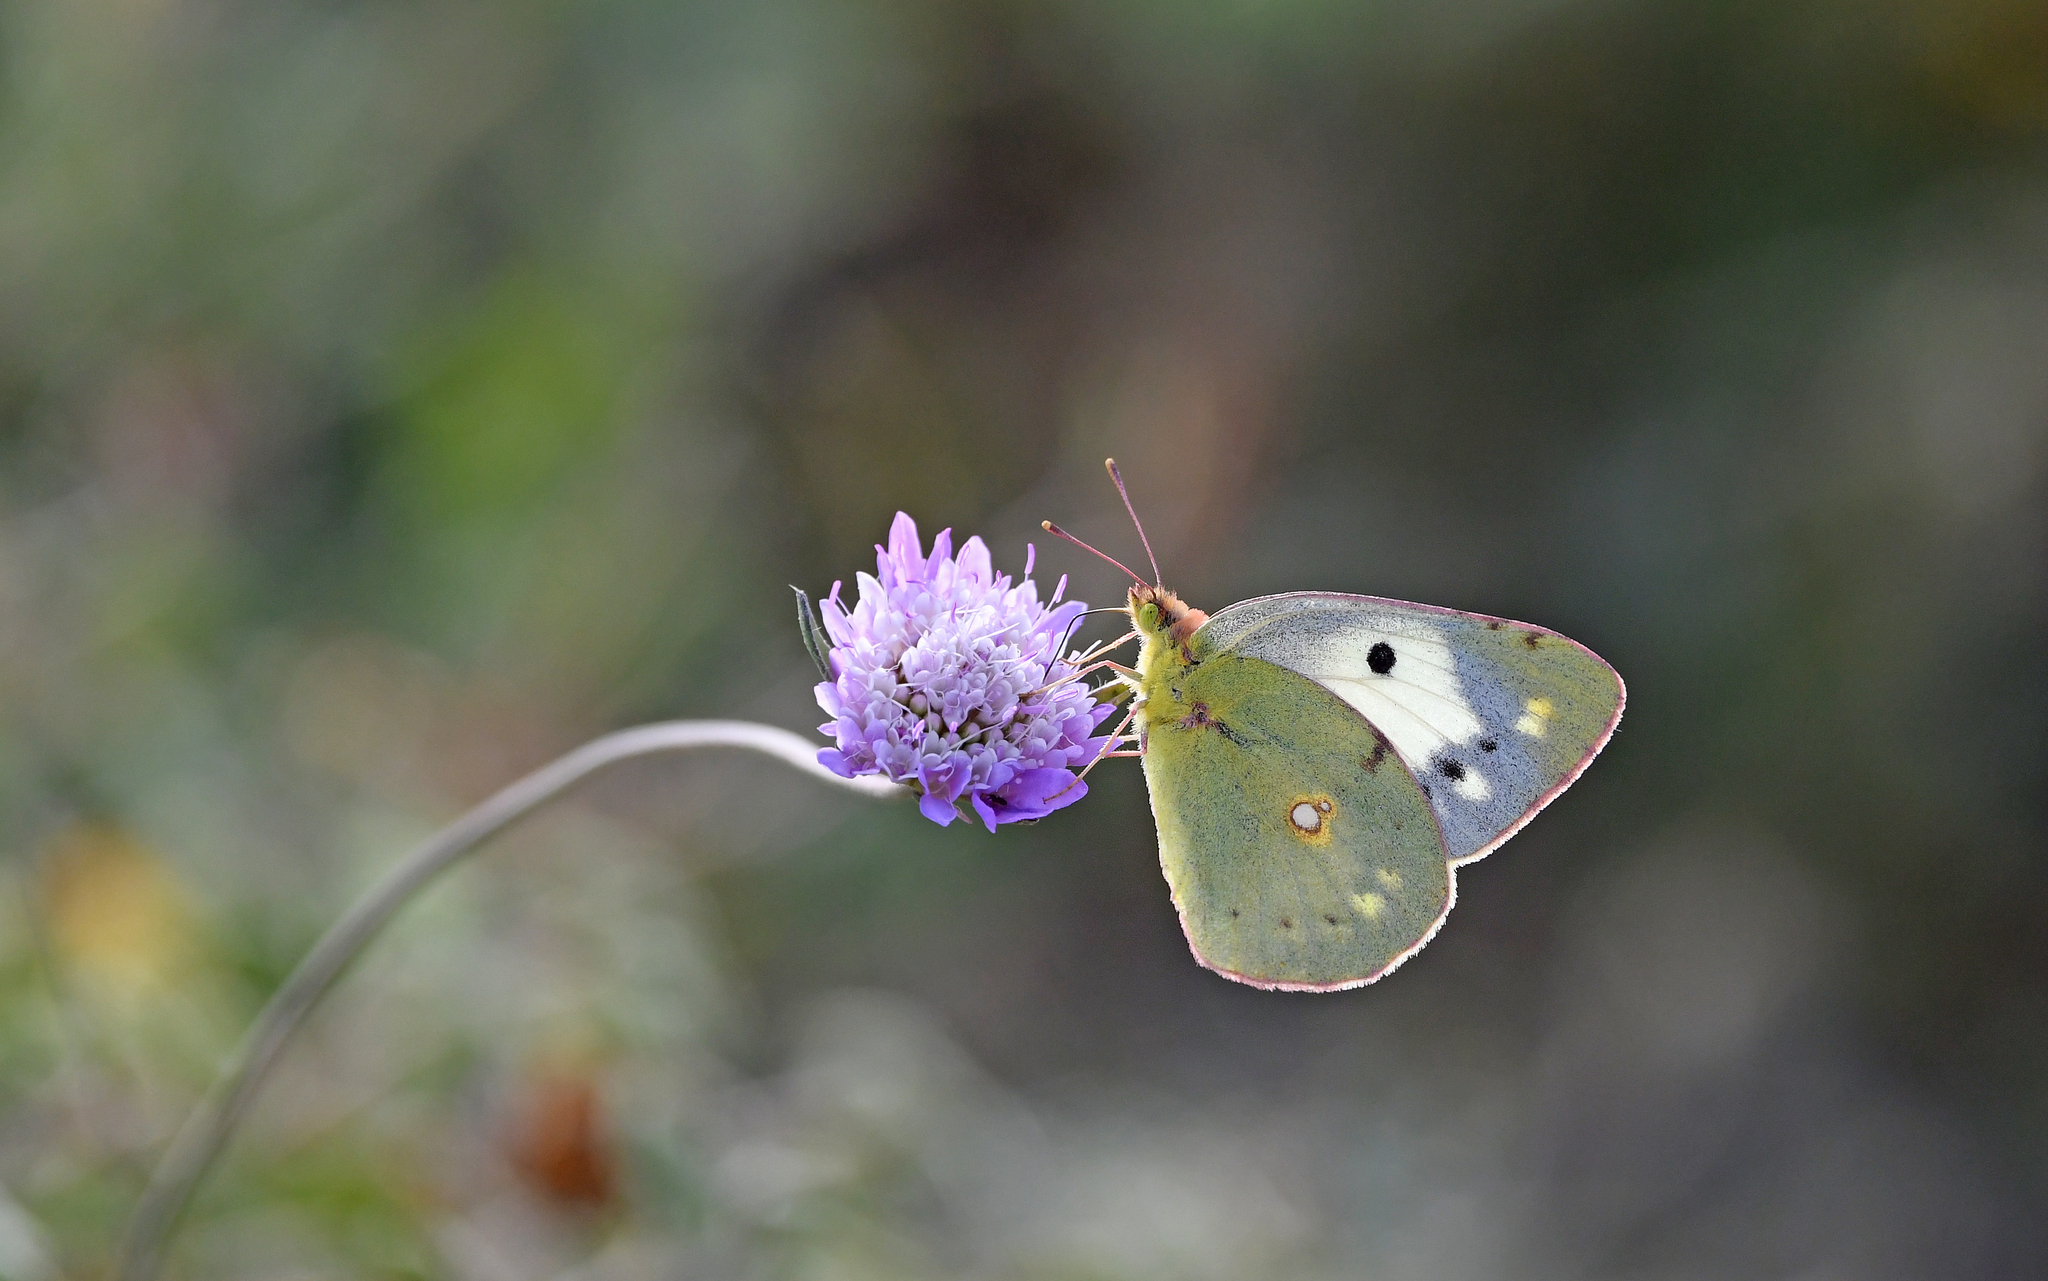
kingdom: Animalia
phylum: Arthropoda
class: Insecta
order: Lepidoptera
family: Pieridae
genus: Colias
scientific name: Colias croceus
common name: Clouded yellow
